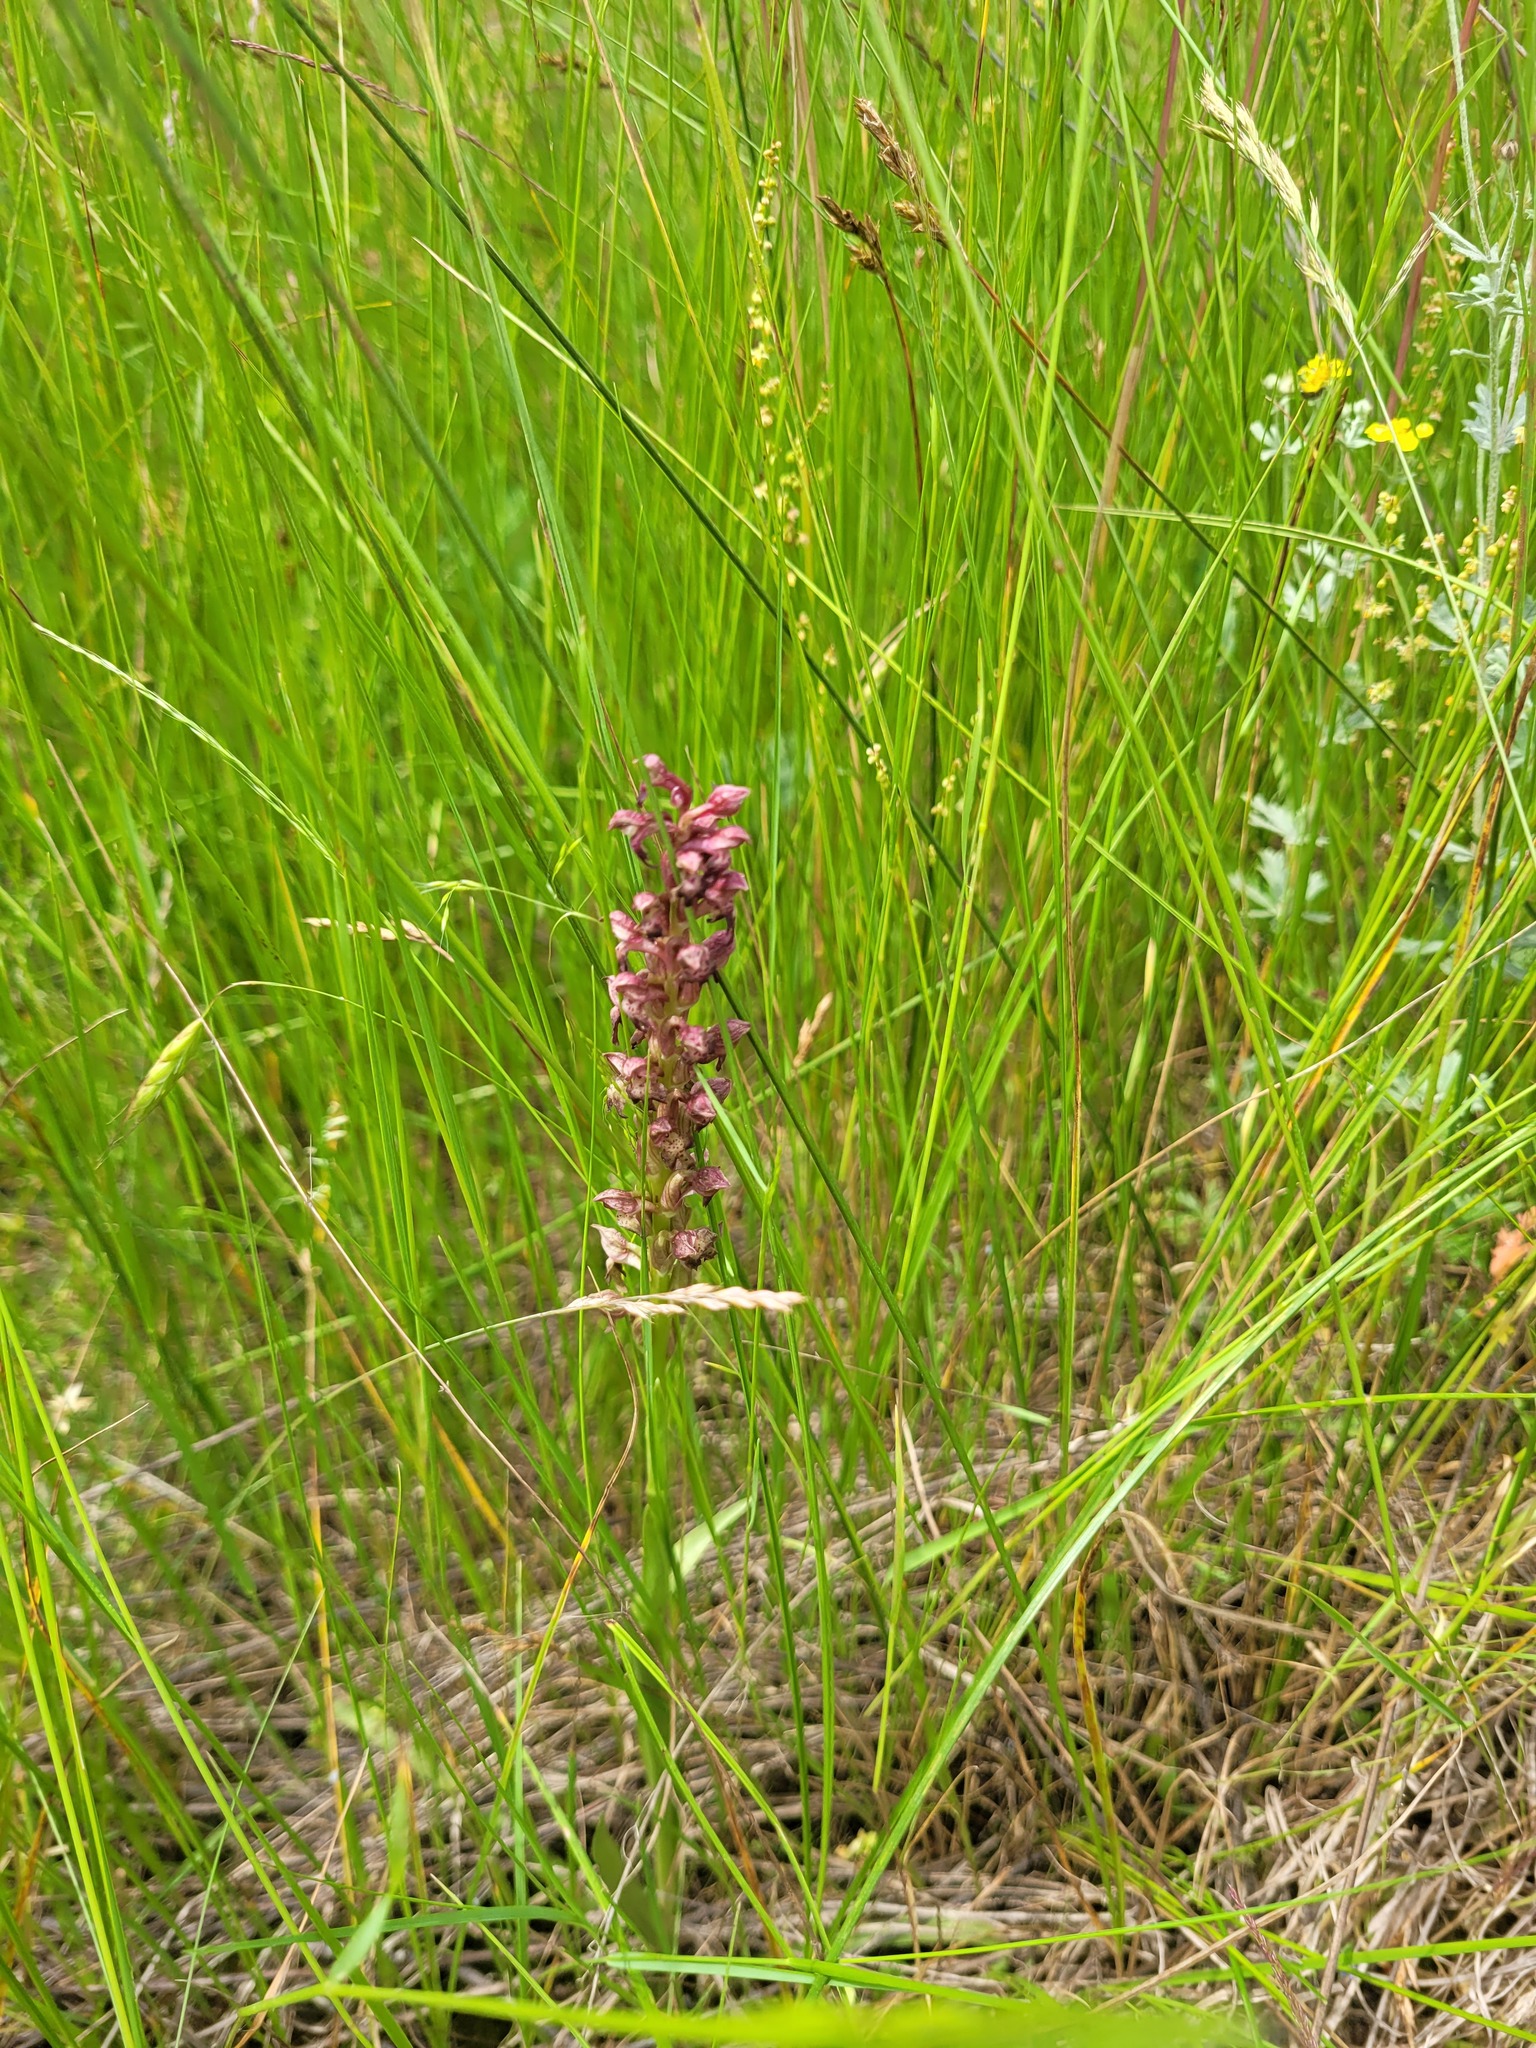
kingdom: Plantae
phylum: Tracheophyta
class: Liliopsida
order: Asparagales
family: Orchidaceae
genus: Anacamptis
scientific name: Anacamptis coriophora
